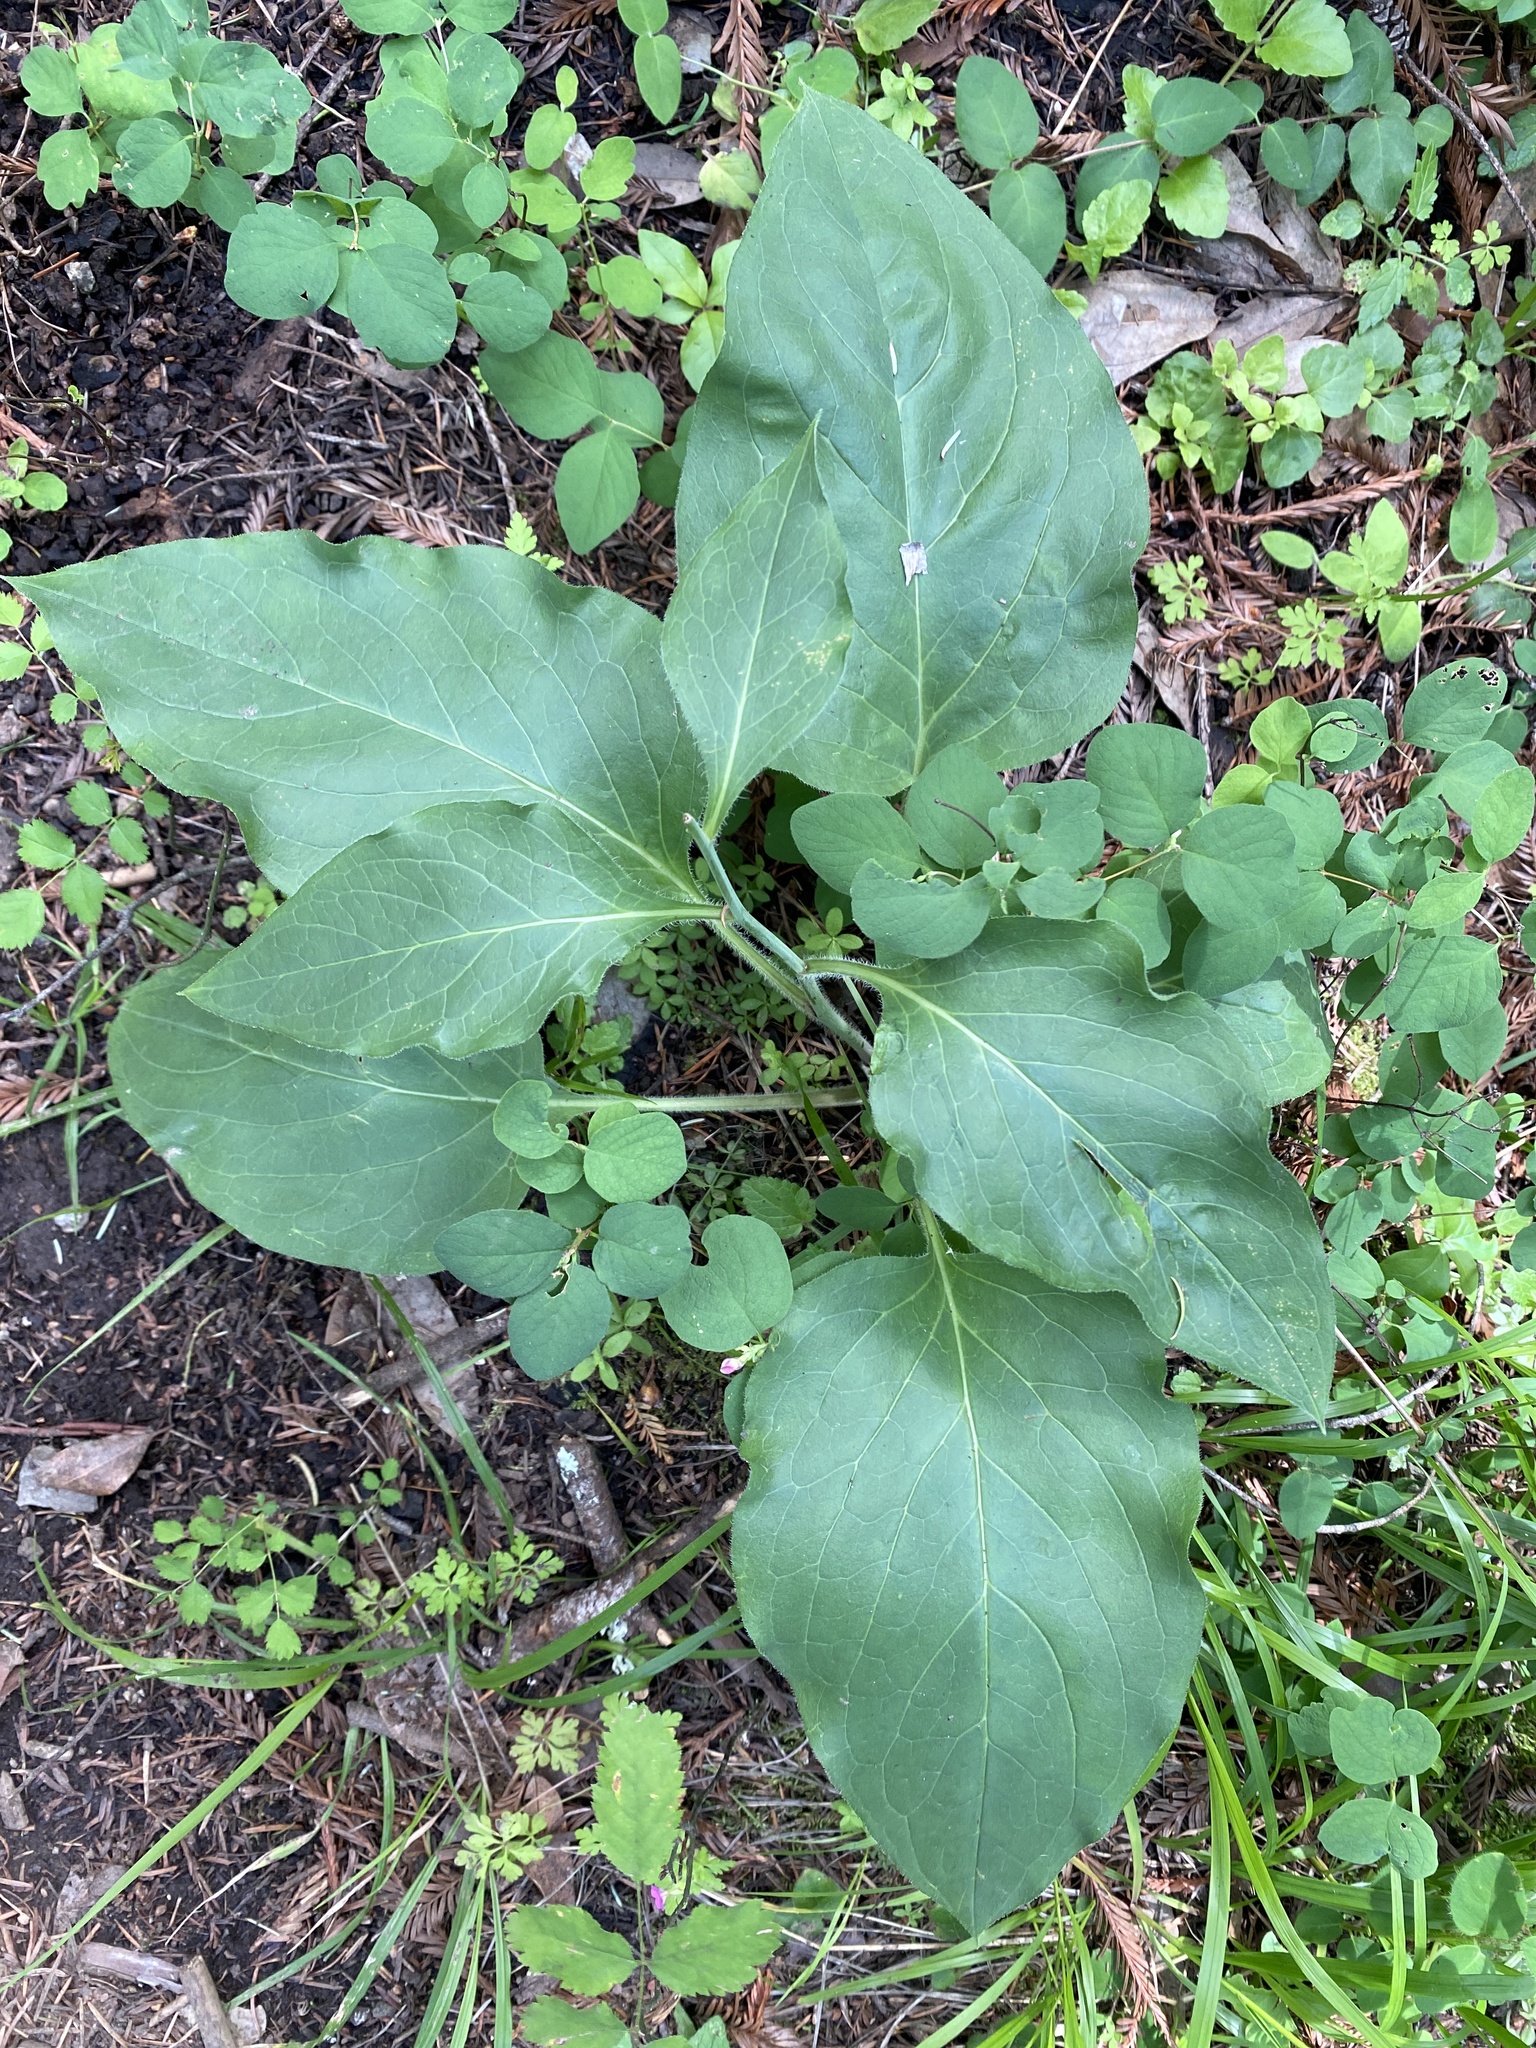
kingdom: Plantae
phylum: Tracheophyta
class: Magnoliopsida
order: Boraginales
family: Boraginaceae
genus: Adelinia
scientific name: Adelinia grande
